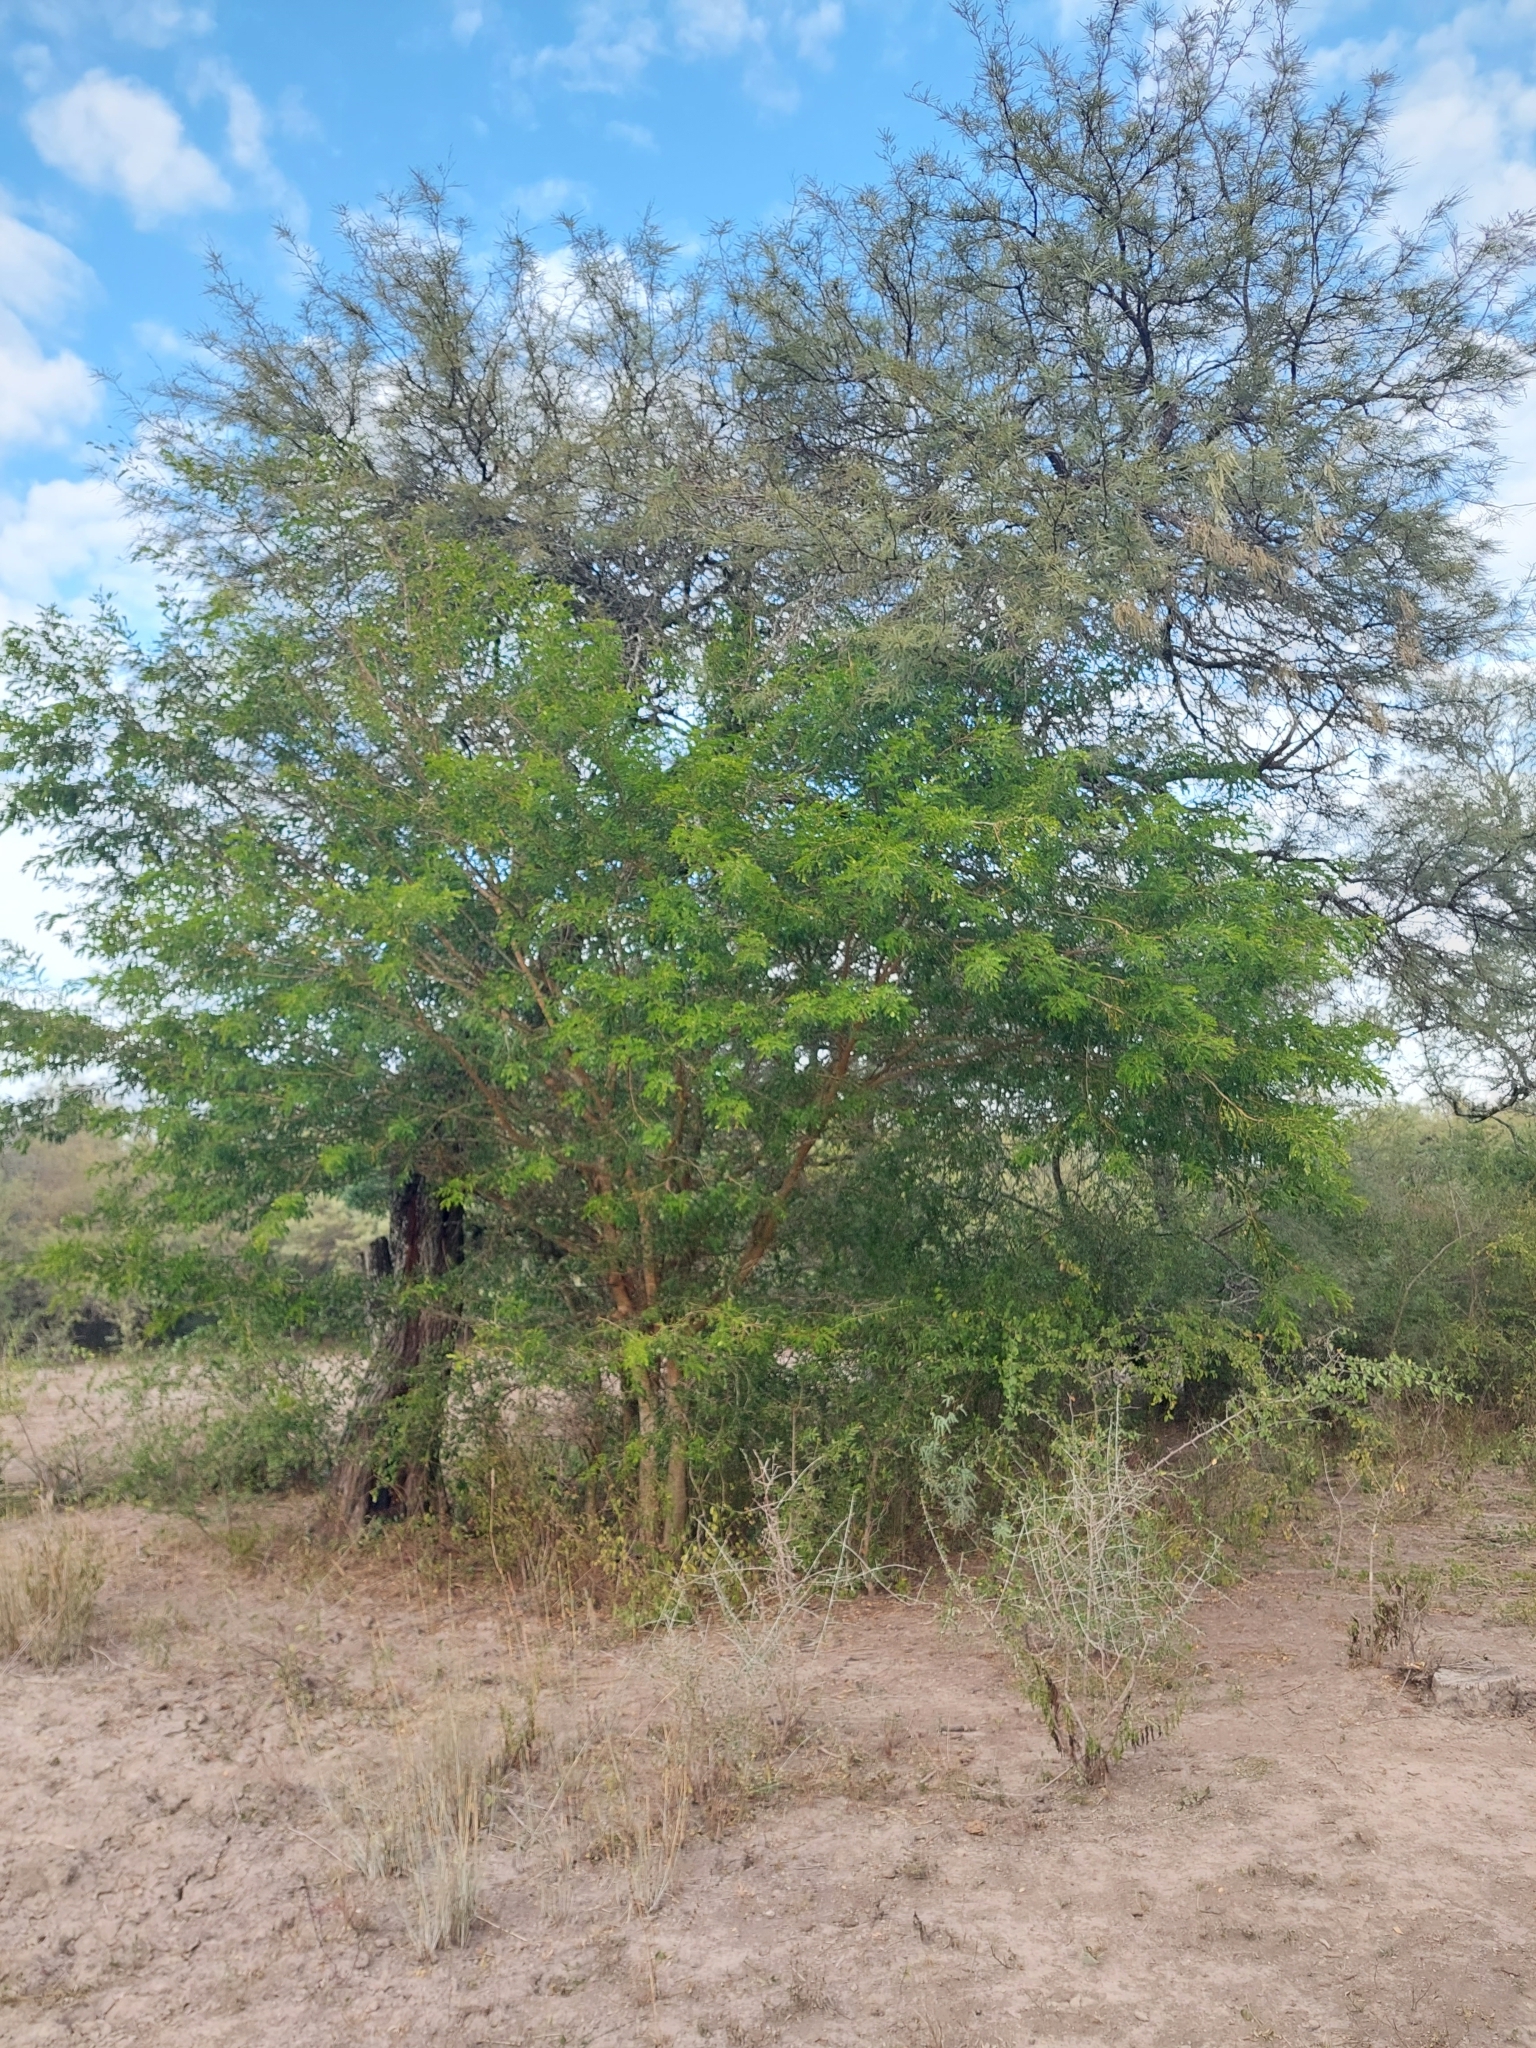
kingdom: Plantae
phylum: Tracheophyta
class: Magnoliopsida
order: Fabales
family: Fabaceae
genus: Gleditsia
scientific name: Gleditsia amorphoides
